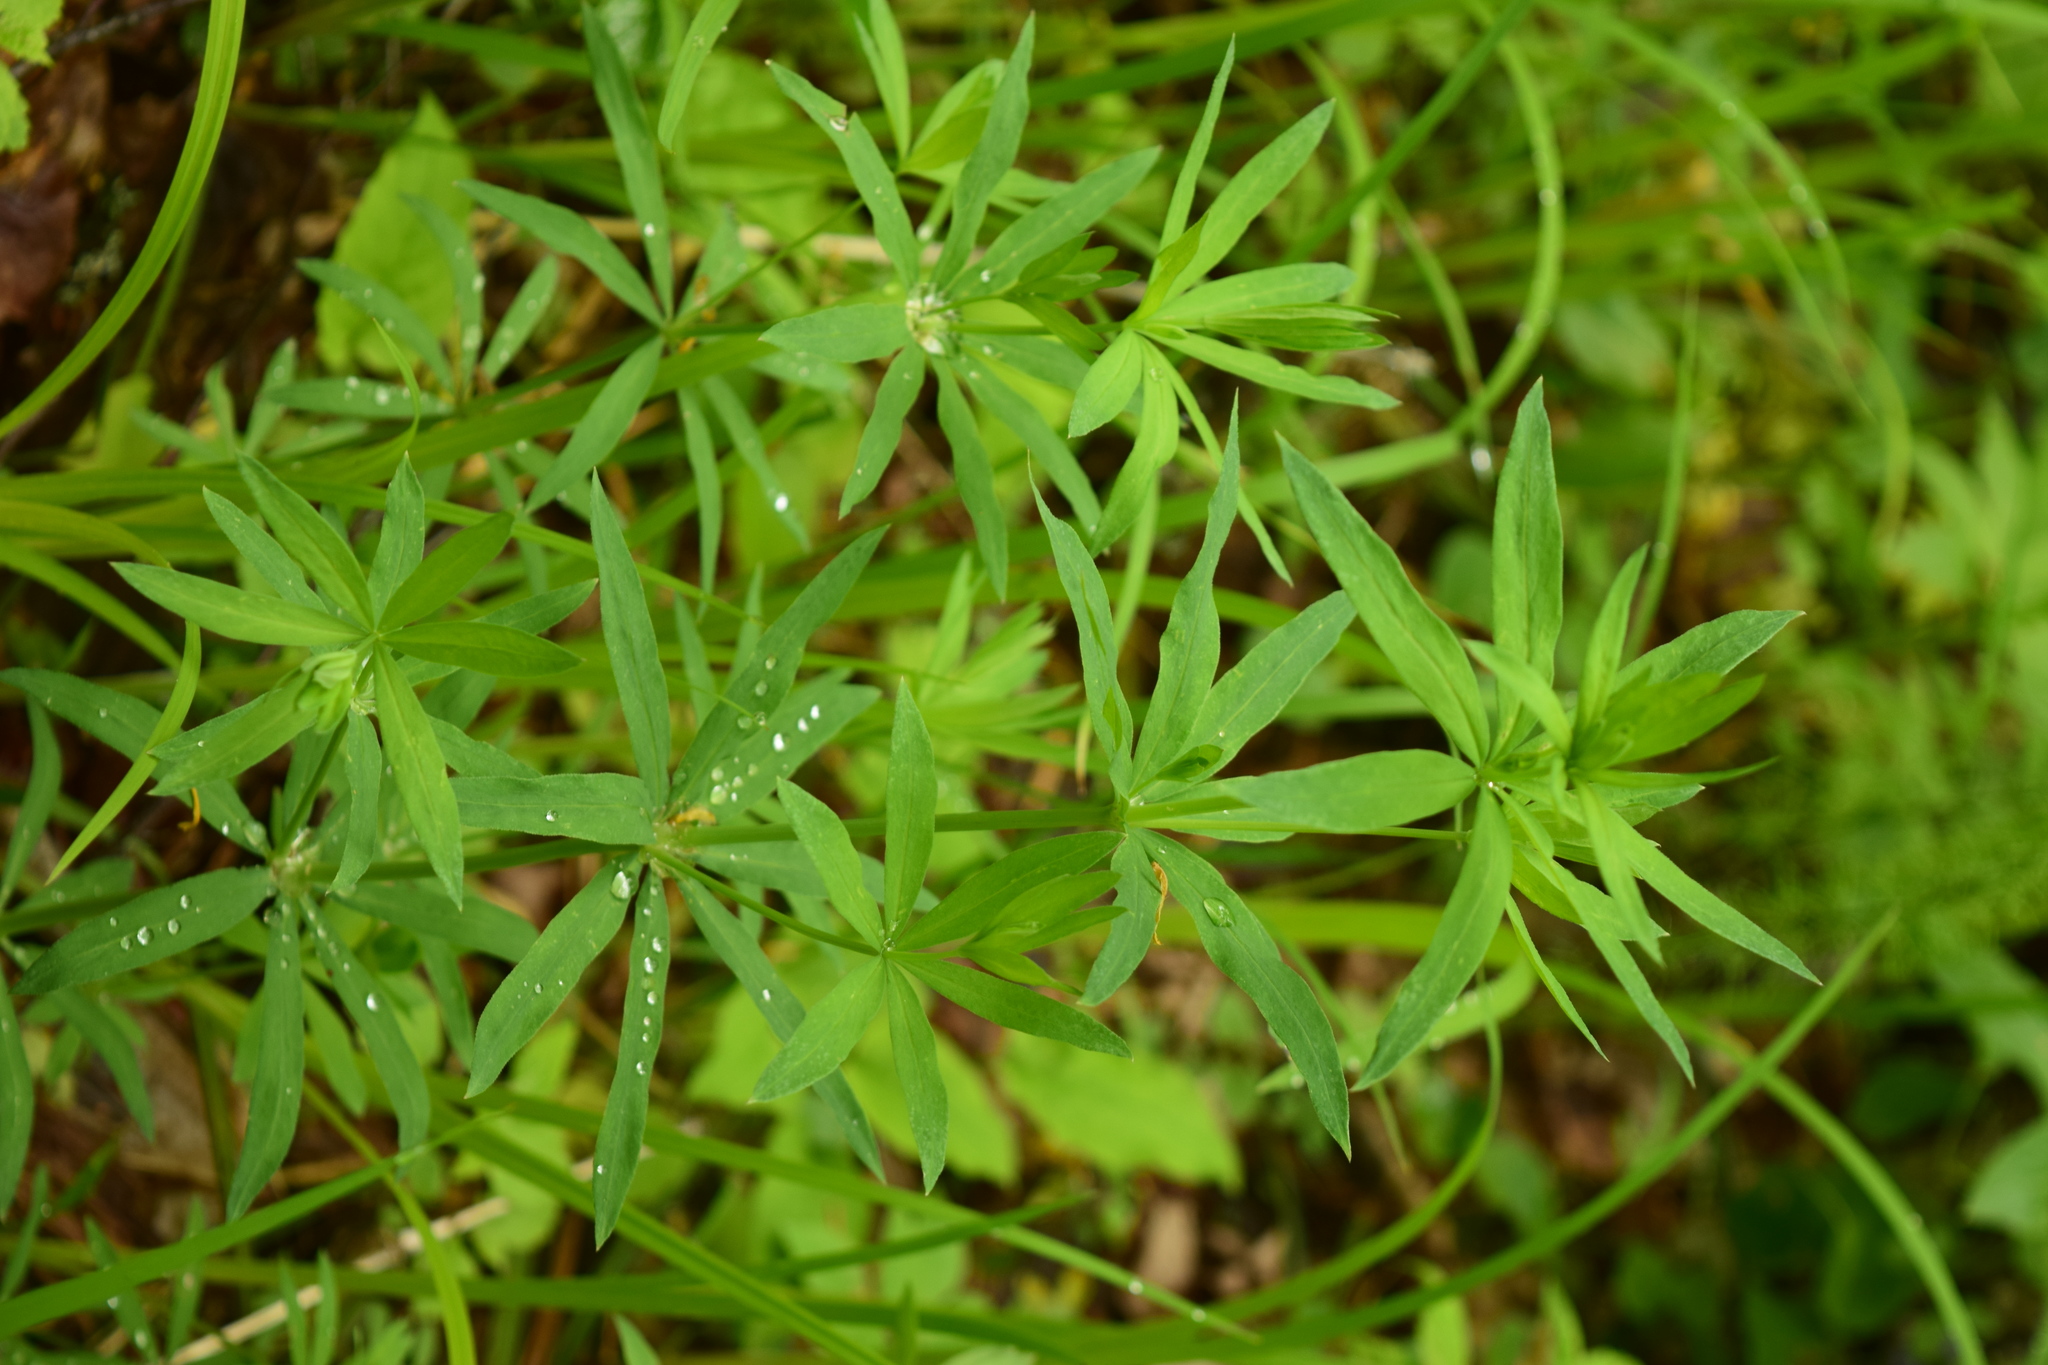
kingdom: Plantae
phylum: Tracheophyta
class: Magnoliopsida
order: Gentianales
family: Rubiaceae
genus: Galium
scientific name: Galium intermedium
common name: Bedstraw
